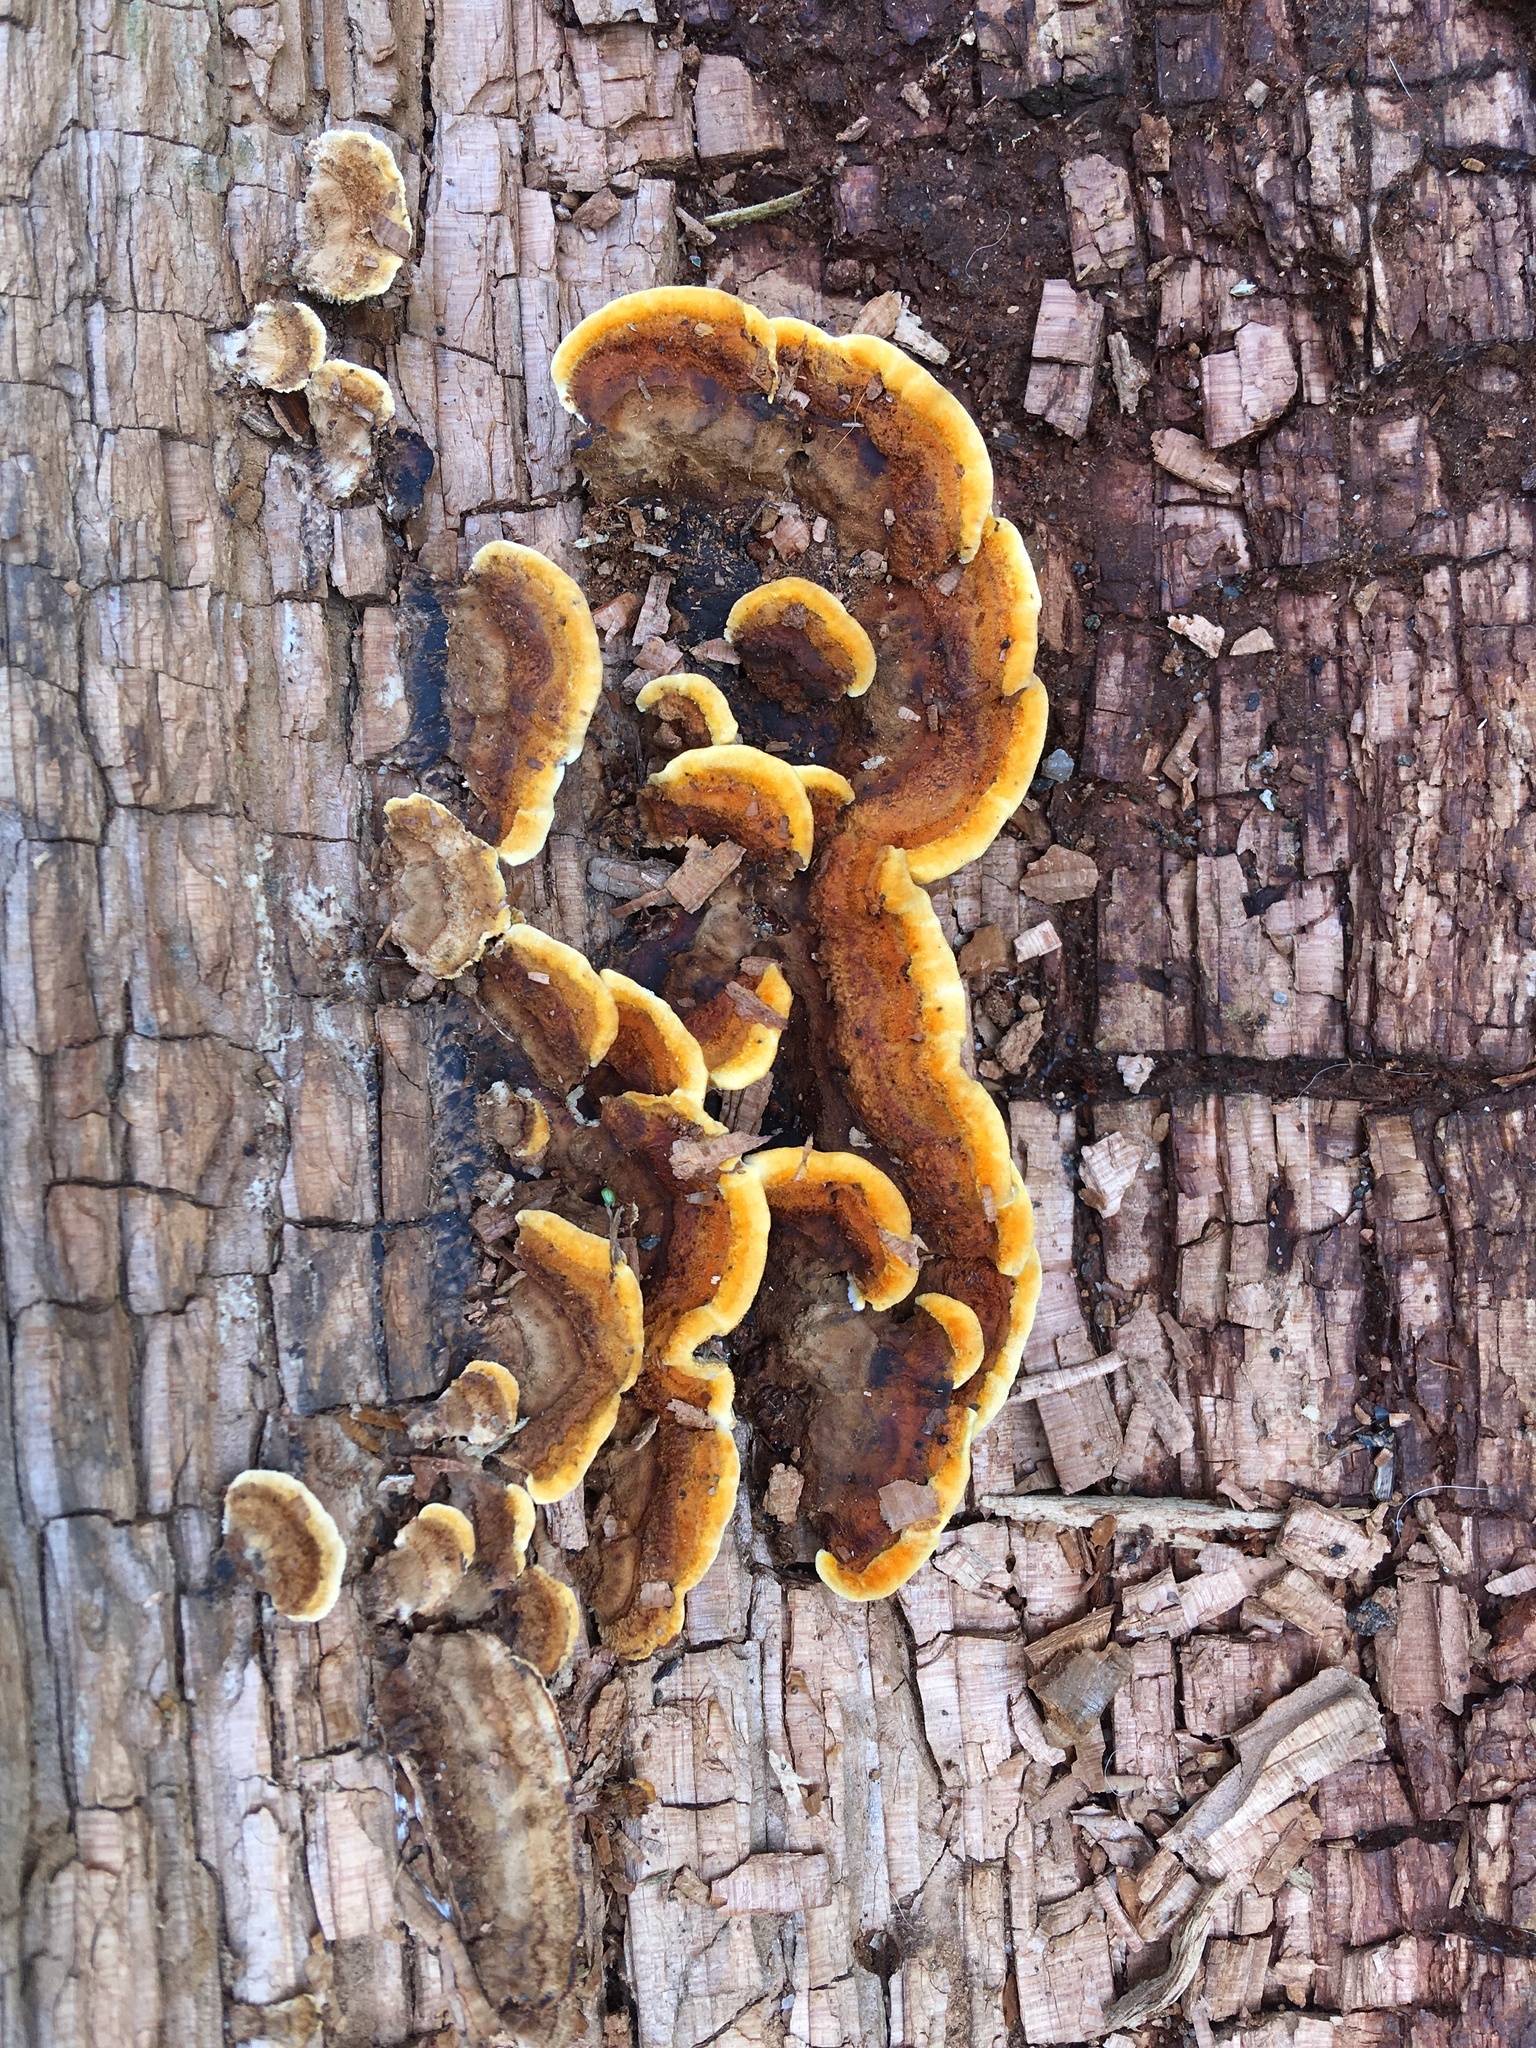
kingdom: Fungi
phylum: Basidiomycota
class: Agaricomycetes
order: Gloeophyllales
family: Gloeophyllaceae
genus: Gloeophyllum
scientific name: Gloeophyllum sepiarium
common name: Conifer mazegill
